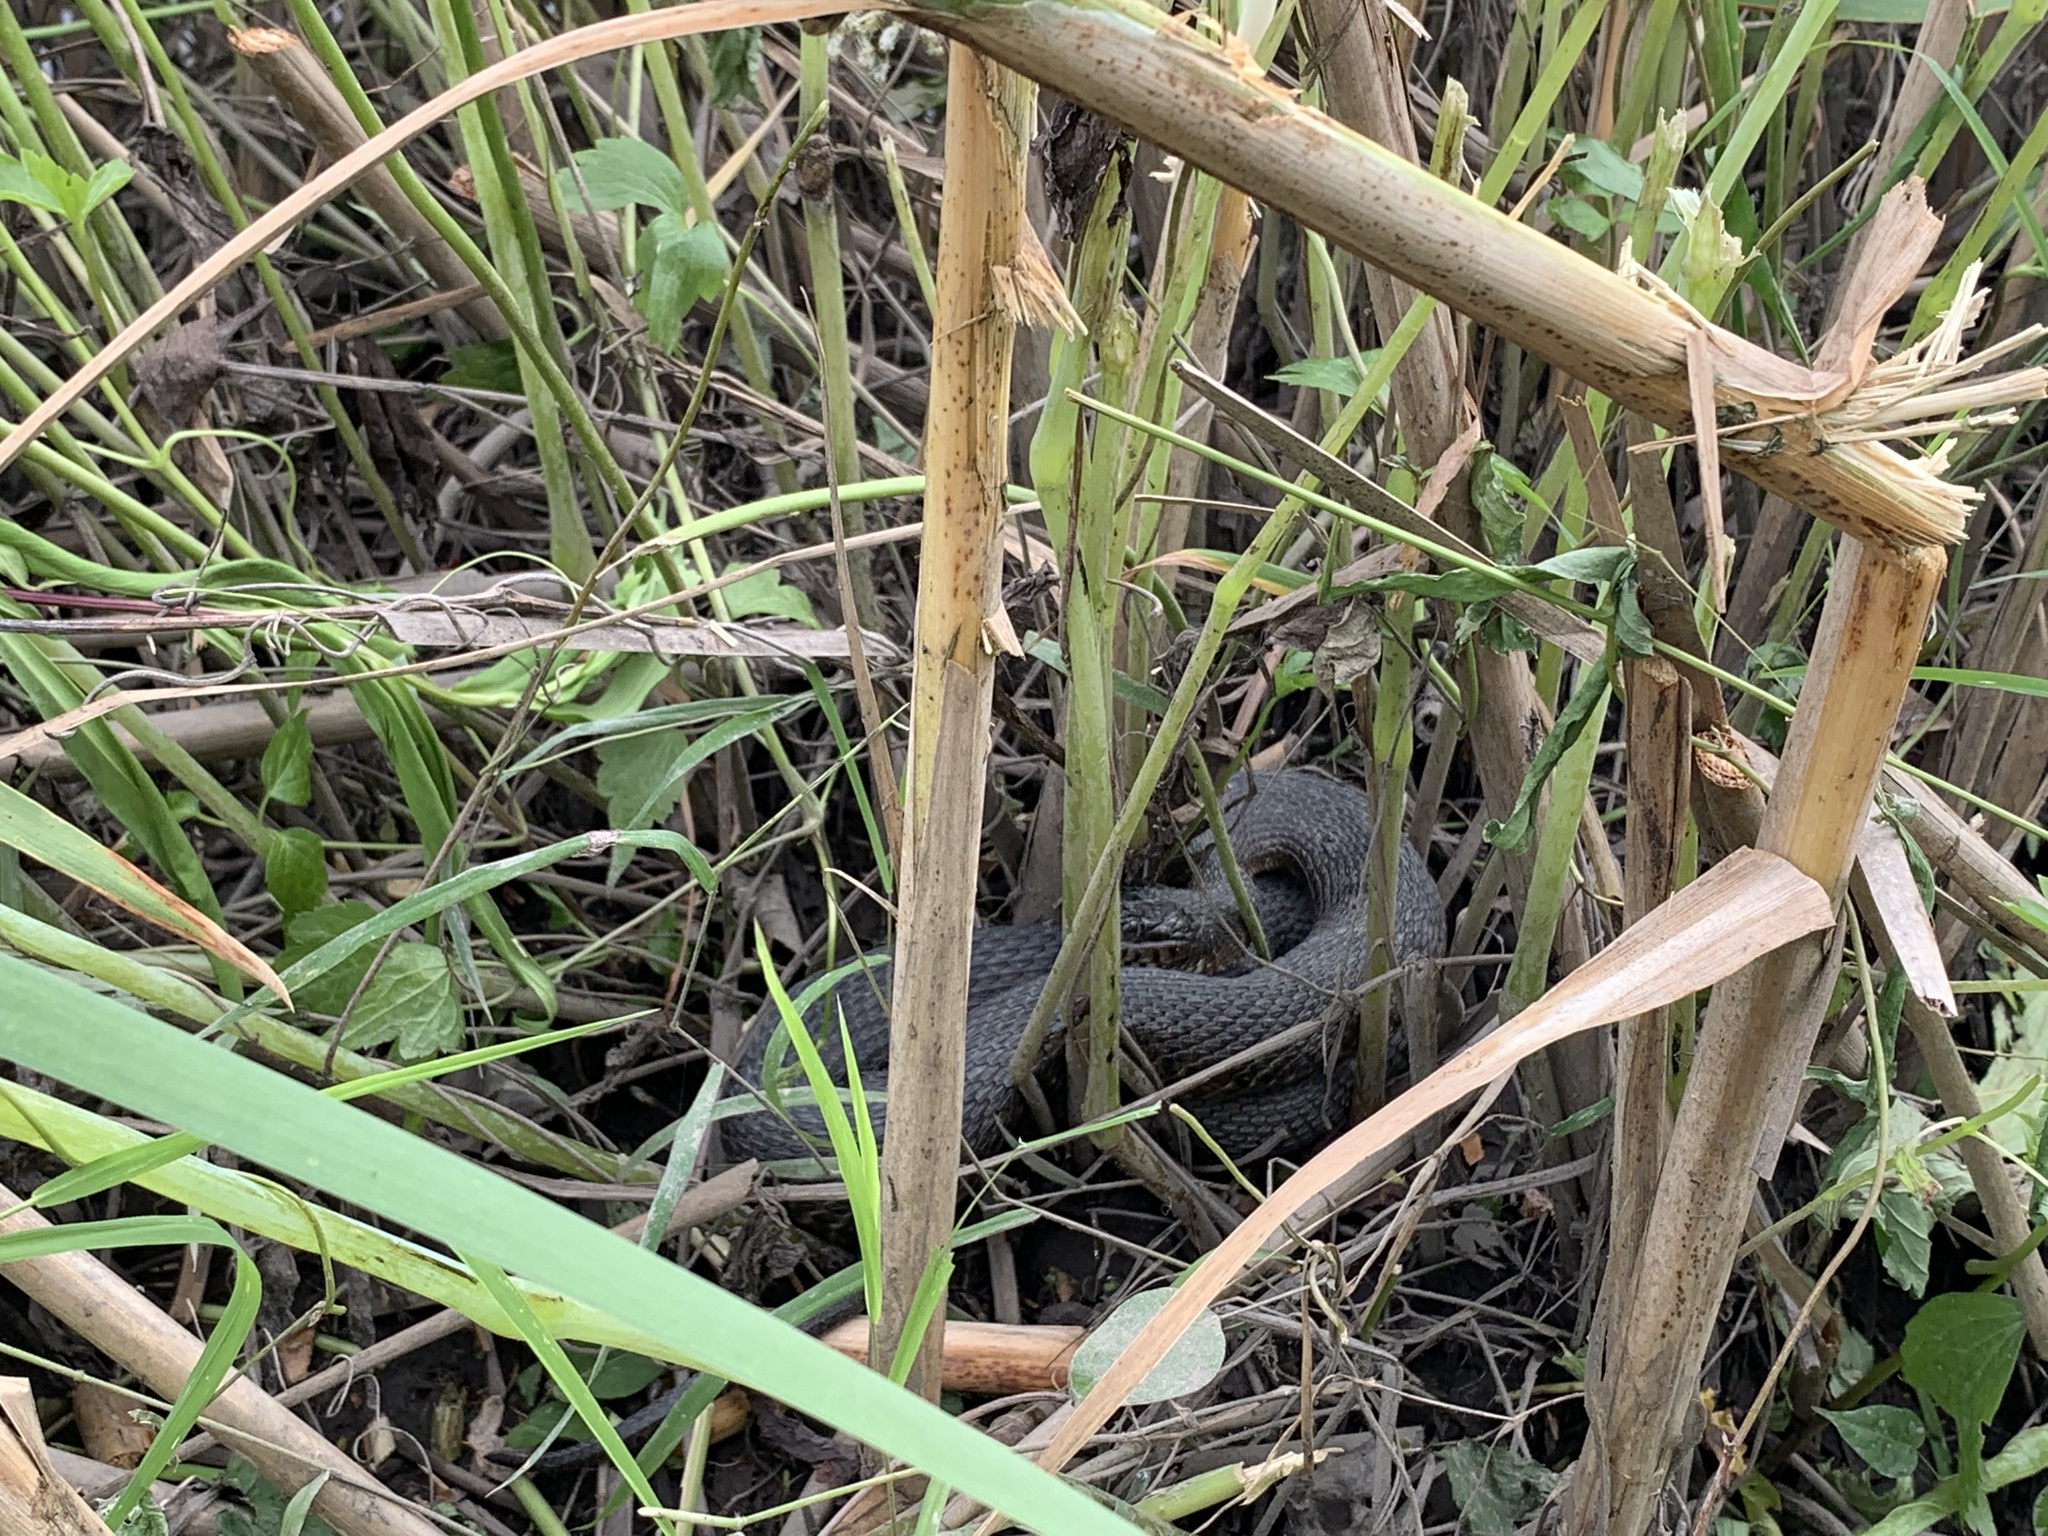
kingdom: Animalia
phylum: Chordata
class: Squamata
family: Colubridae
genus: Nerodia
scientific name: Nerodia sipedon
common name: Northern water snake
